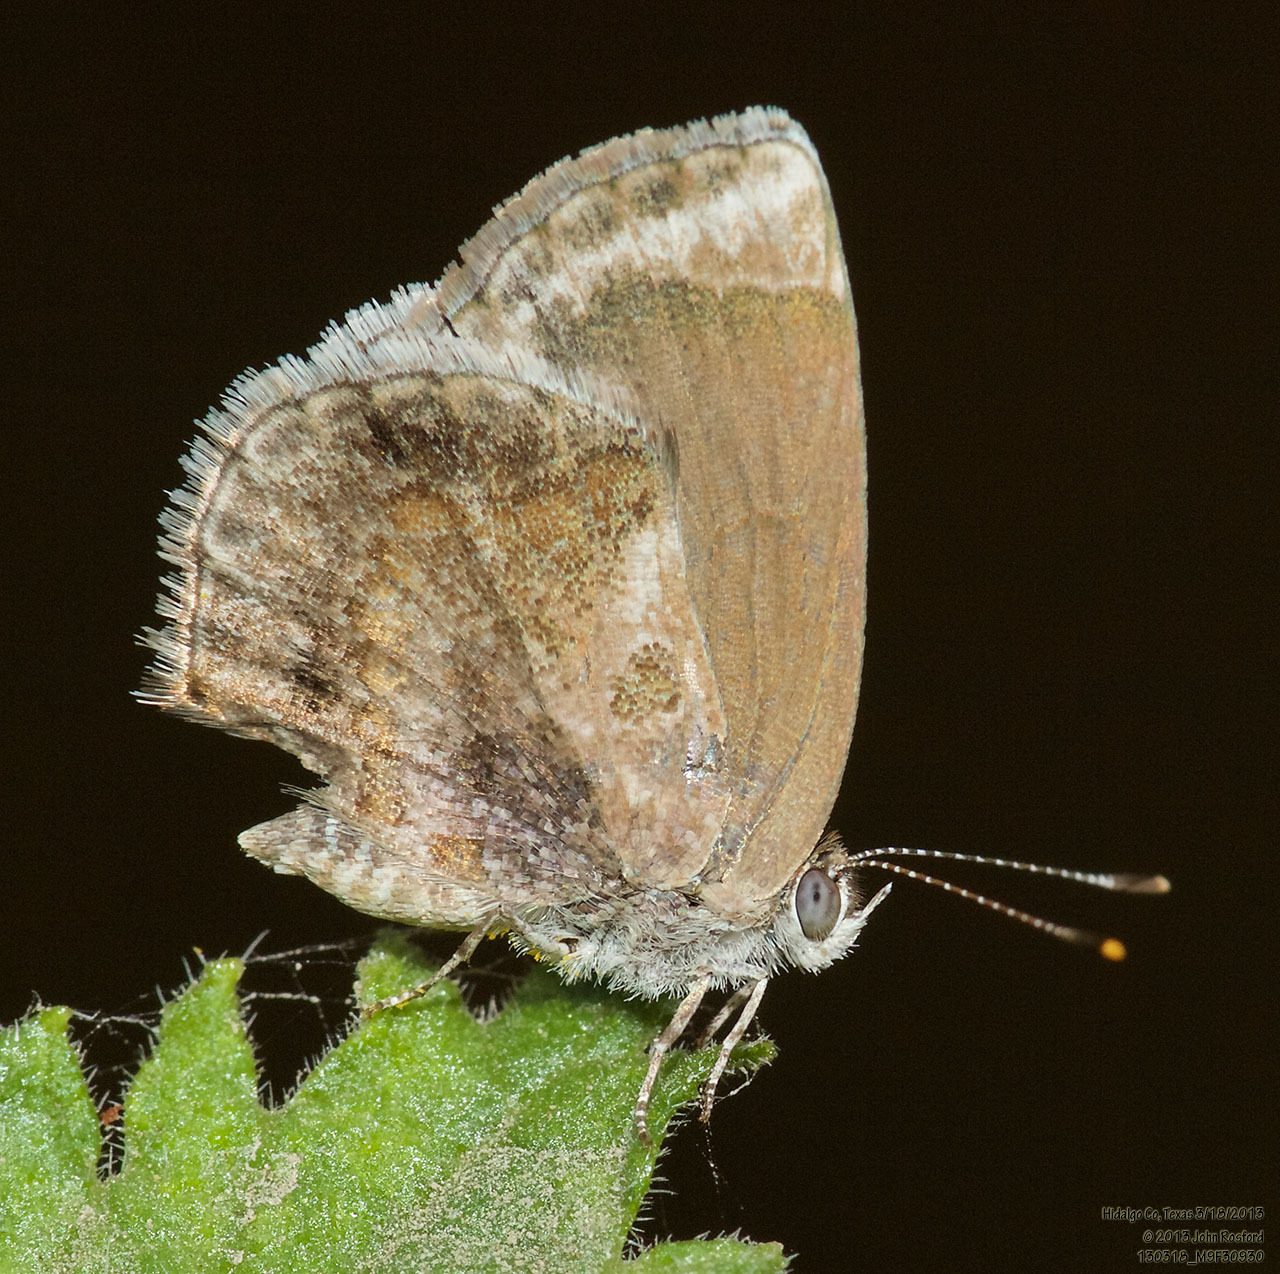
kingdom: Animalia
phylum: Arthropoda
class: Insecta
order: Lepidoptera
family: Lycaenidae
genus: Strymon
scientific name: Strymon bazochii
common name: Lantana scrub-hairstreak
